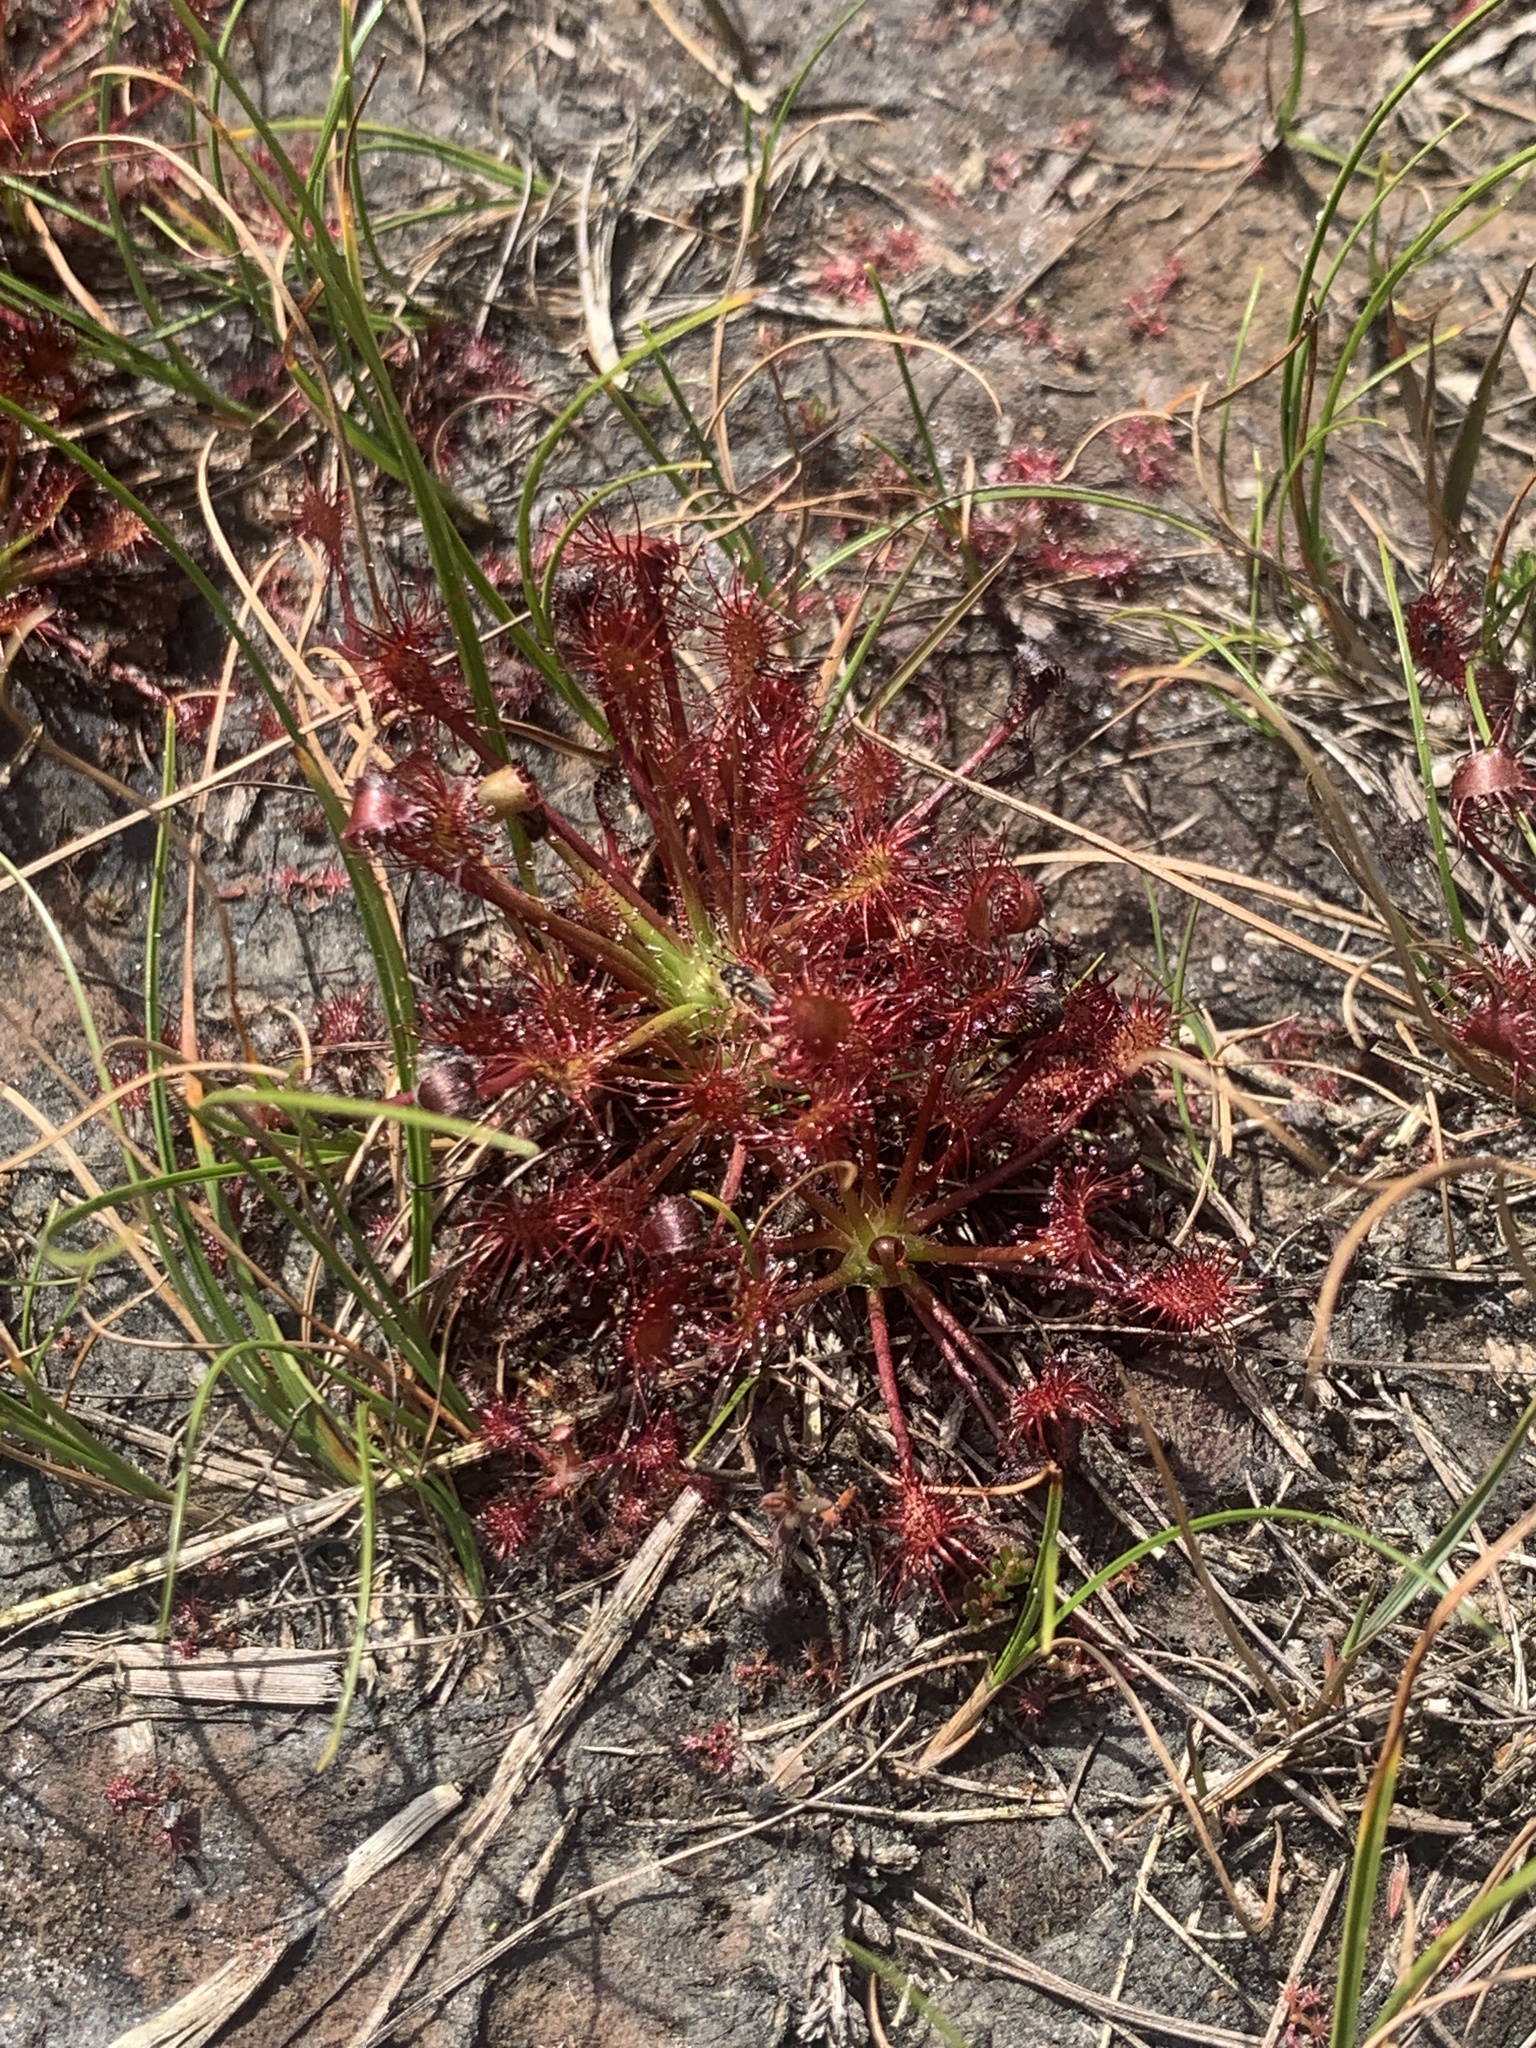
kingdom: Plantae
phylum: Tracheophyta
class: Magnoliopsida
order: Caryophyllales
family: Droseraceae
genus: Drosera
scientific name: Drosera intermedia
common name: Oblong-leaved sundew
